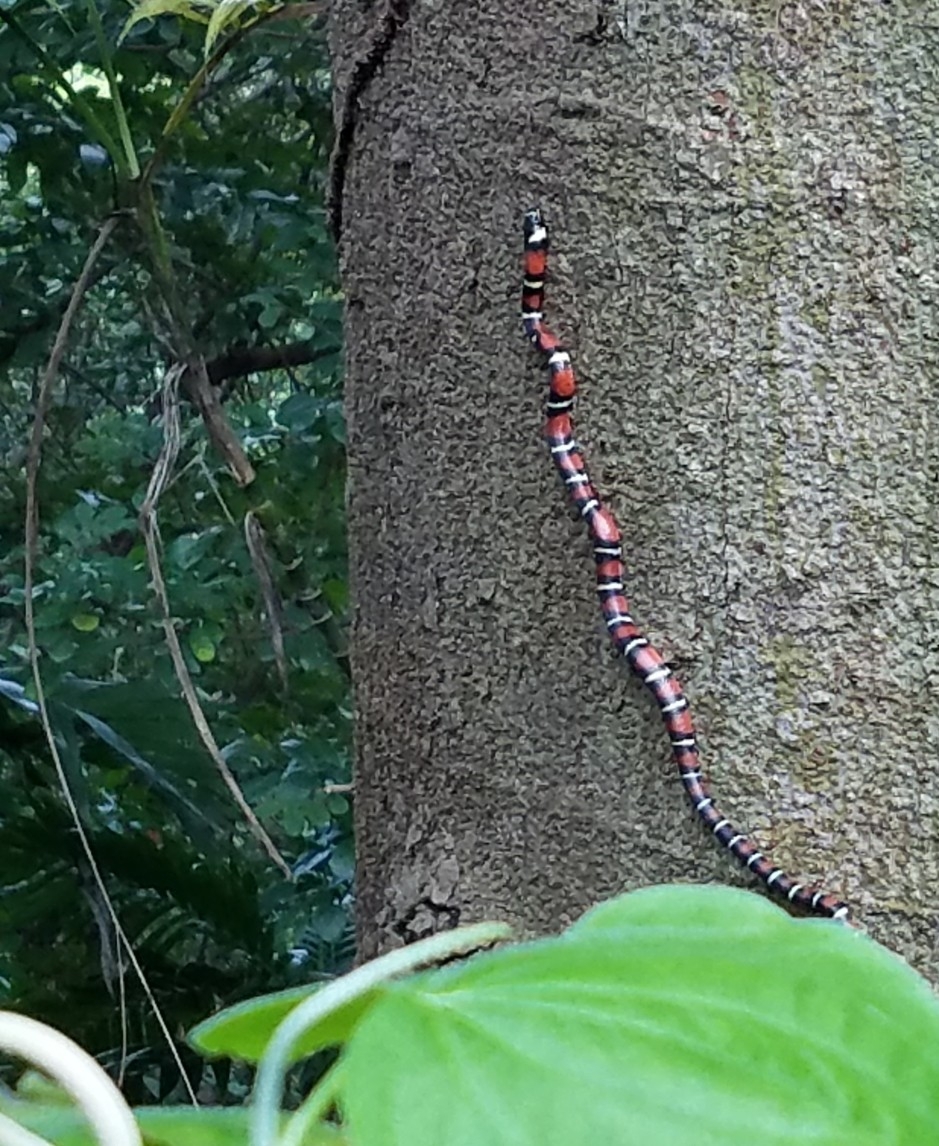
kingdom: Animalia
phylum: Chordata
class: Squamata
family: Colubridae
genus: Lampropeltis
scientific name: Lampropeltis abnorma
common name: Honduran milk snake
